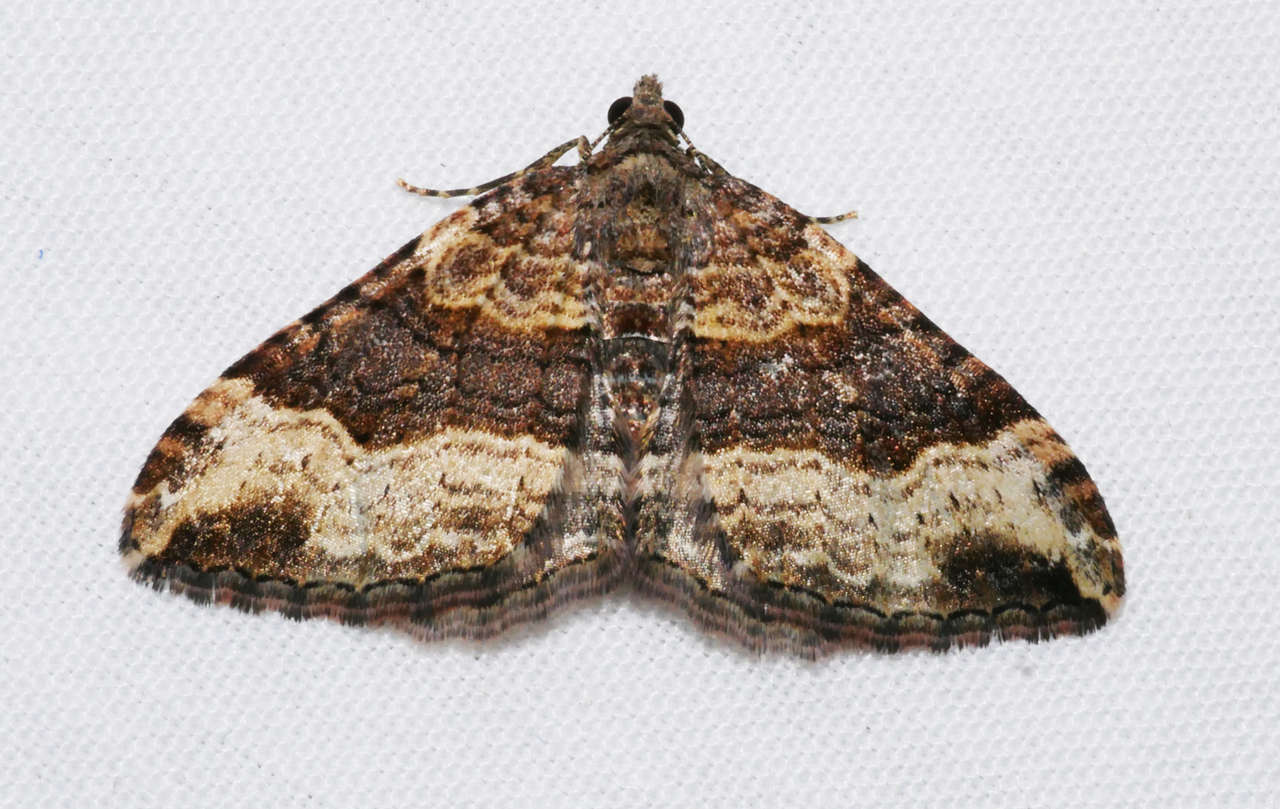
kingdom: Animalia
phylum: Arthropoda
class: Insecta
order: Lepidoptera
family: Geometridae
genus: Epyaxa
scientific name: Epyaxa subidaria
